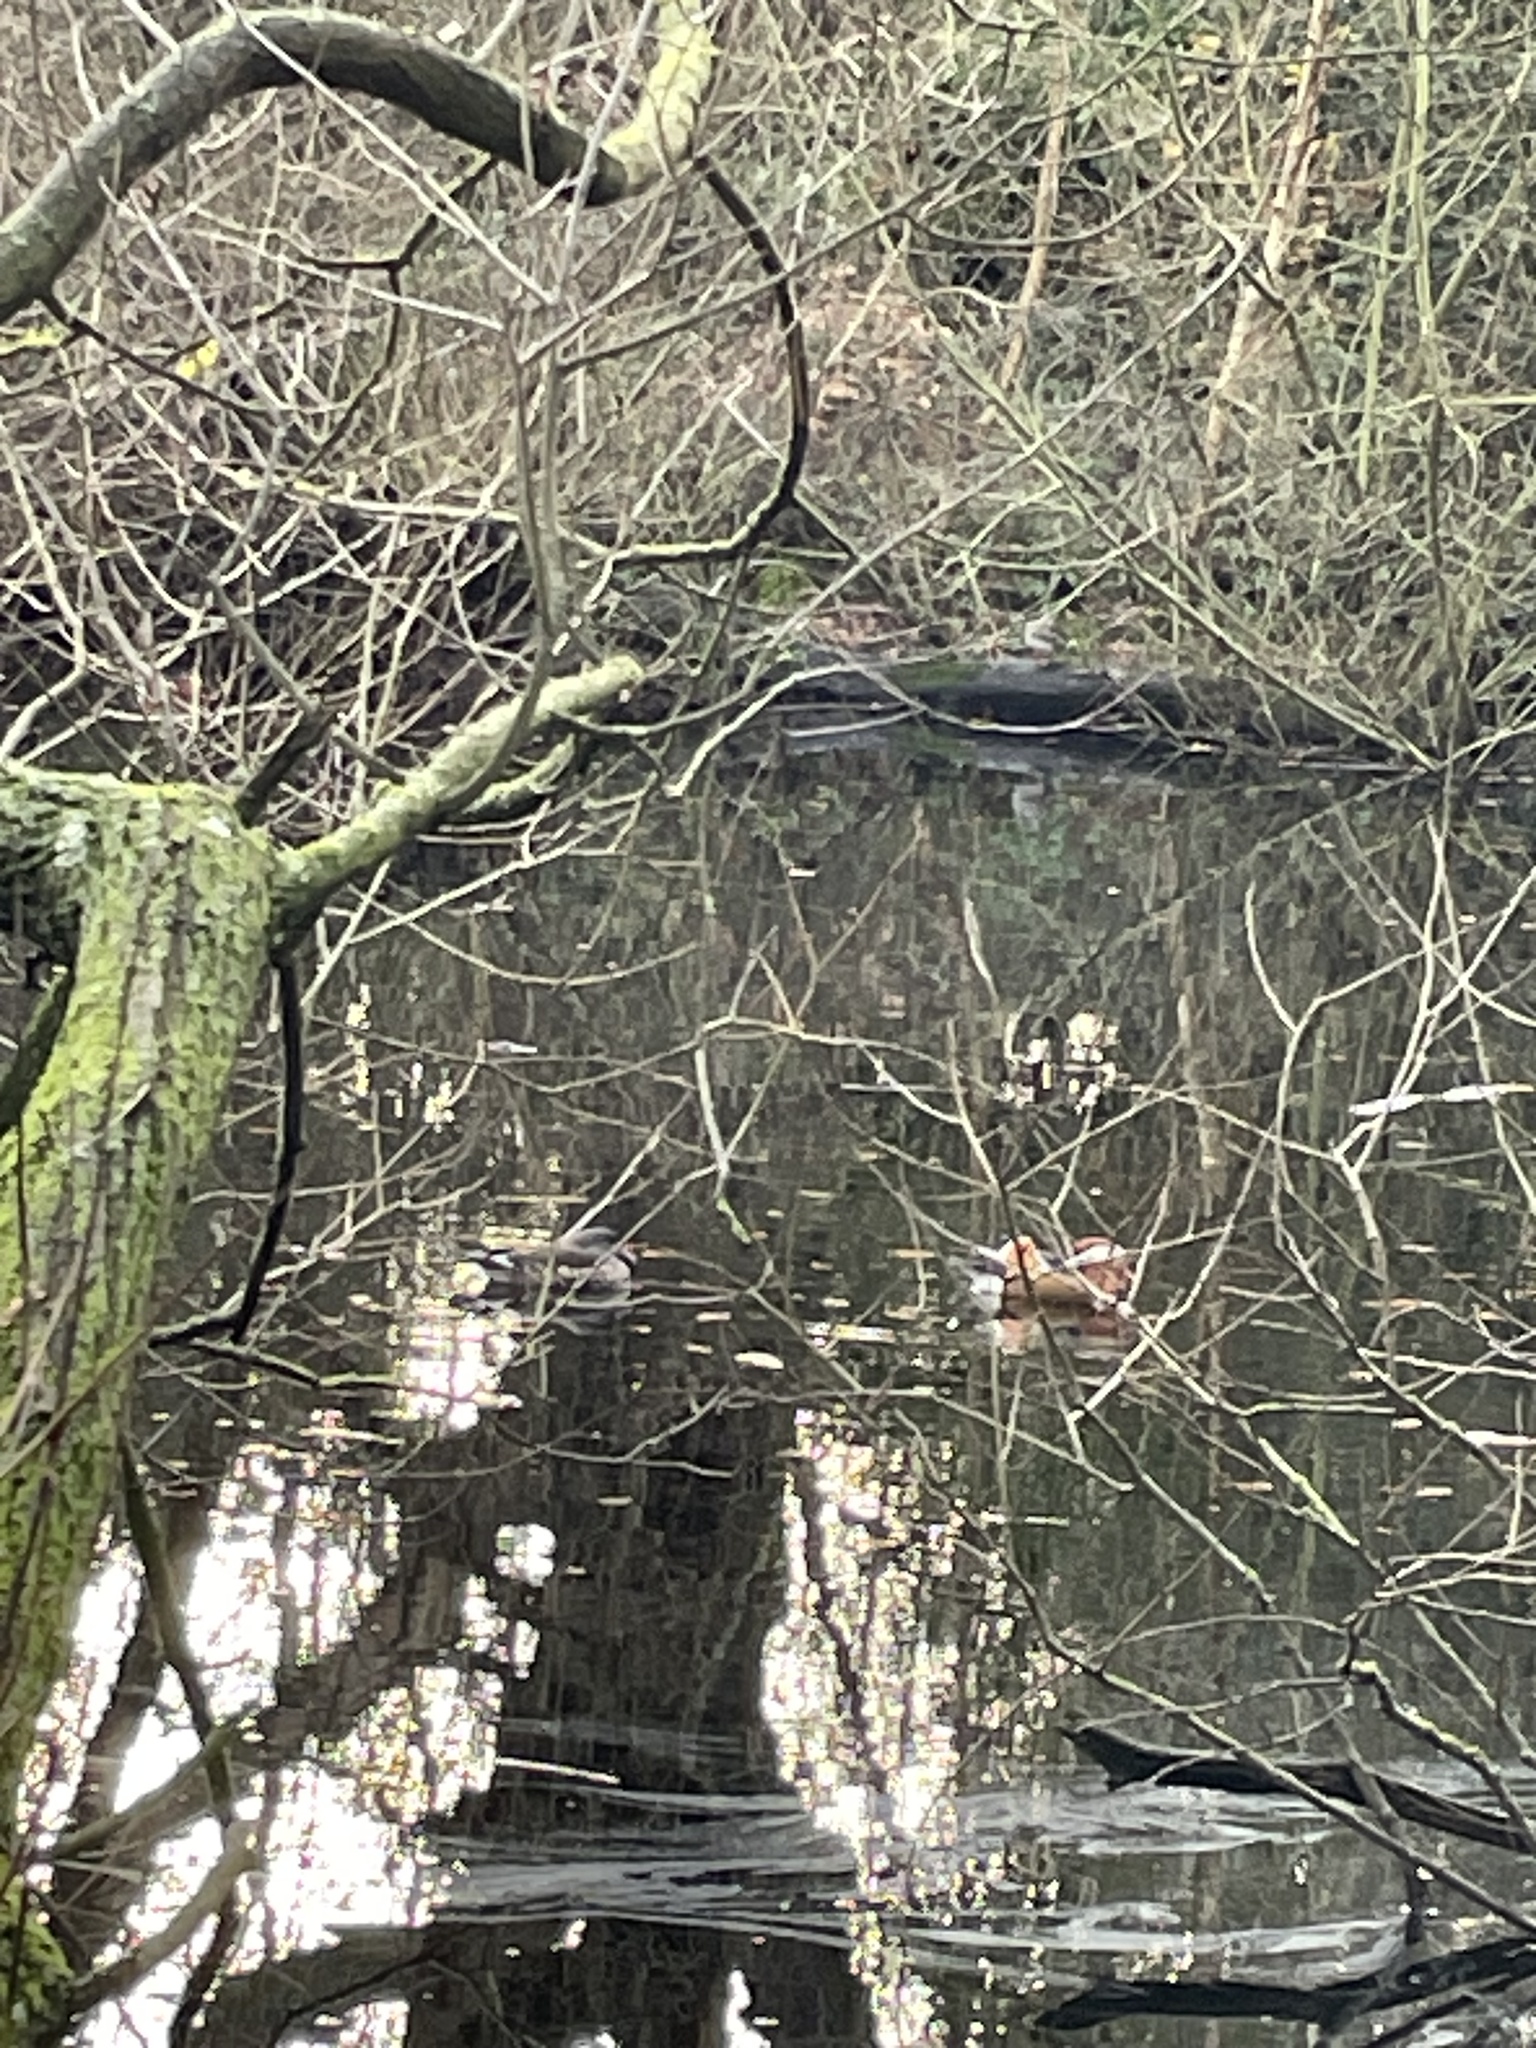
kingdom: Animalia
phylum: Chordata
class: Aves
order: Anseriformes
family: Anatidae
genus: Aix
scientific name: Aix galericulata
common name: Mandarin duck
